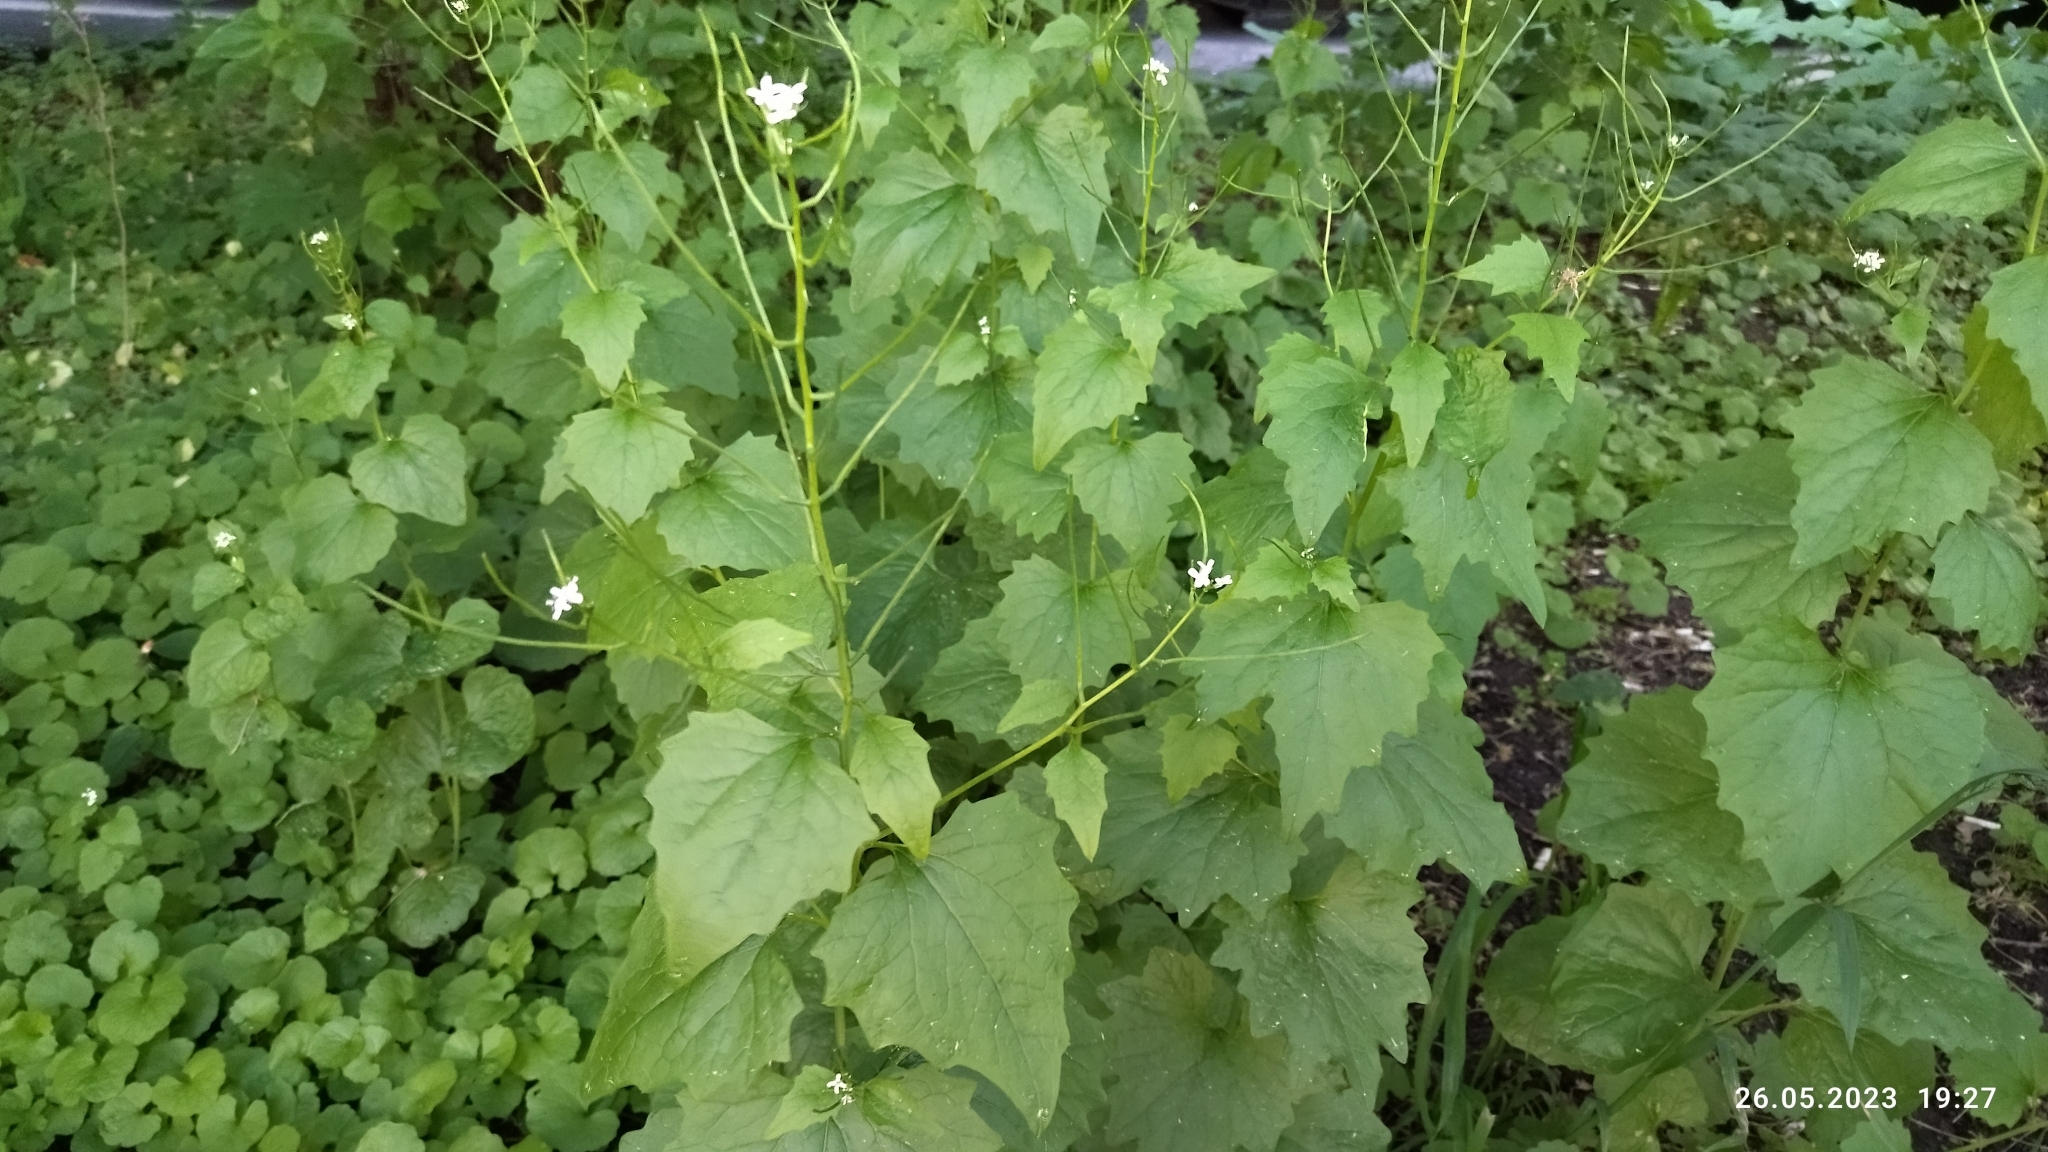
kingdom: Plantae
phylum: Tracheophyta
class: Magnoliopsida
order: Brassicales
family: Brassicaceae
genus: Alliaria
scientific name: Alliaria petiolata
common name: Garlic mustard
